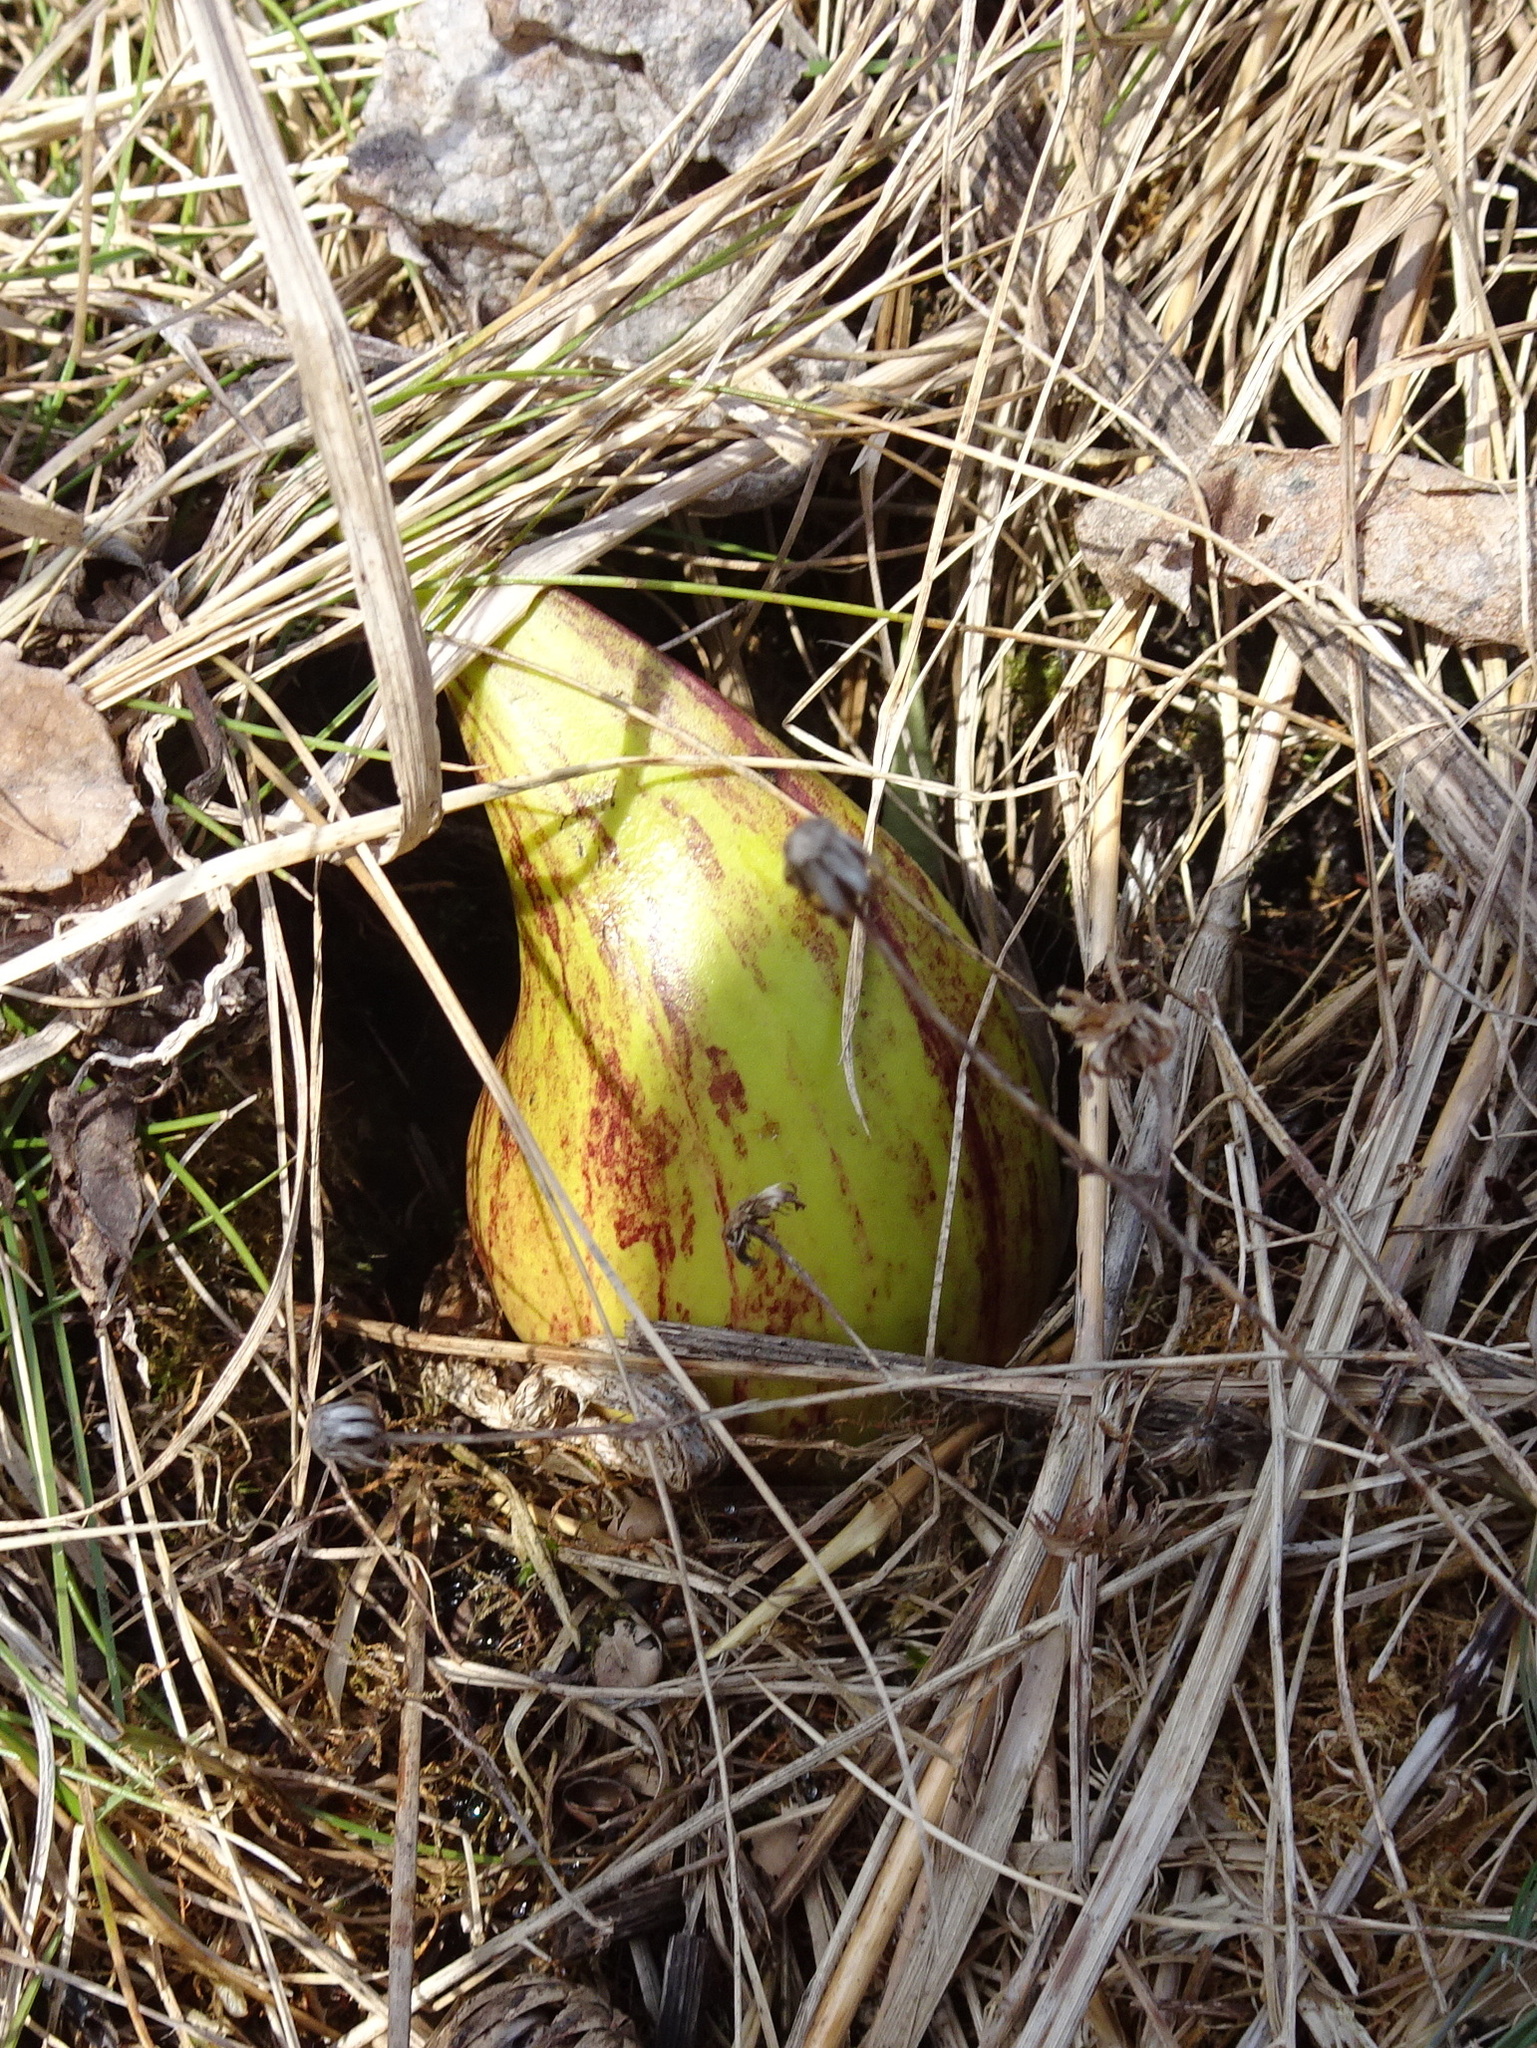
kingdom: Plantae
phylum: Tracheophyta
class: Liliopsida
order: Alismatales
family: Araceae
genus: Symplocarpus
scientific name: Symplocarpus foetidus
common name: Eastern skunk cabbage
